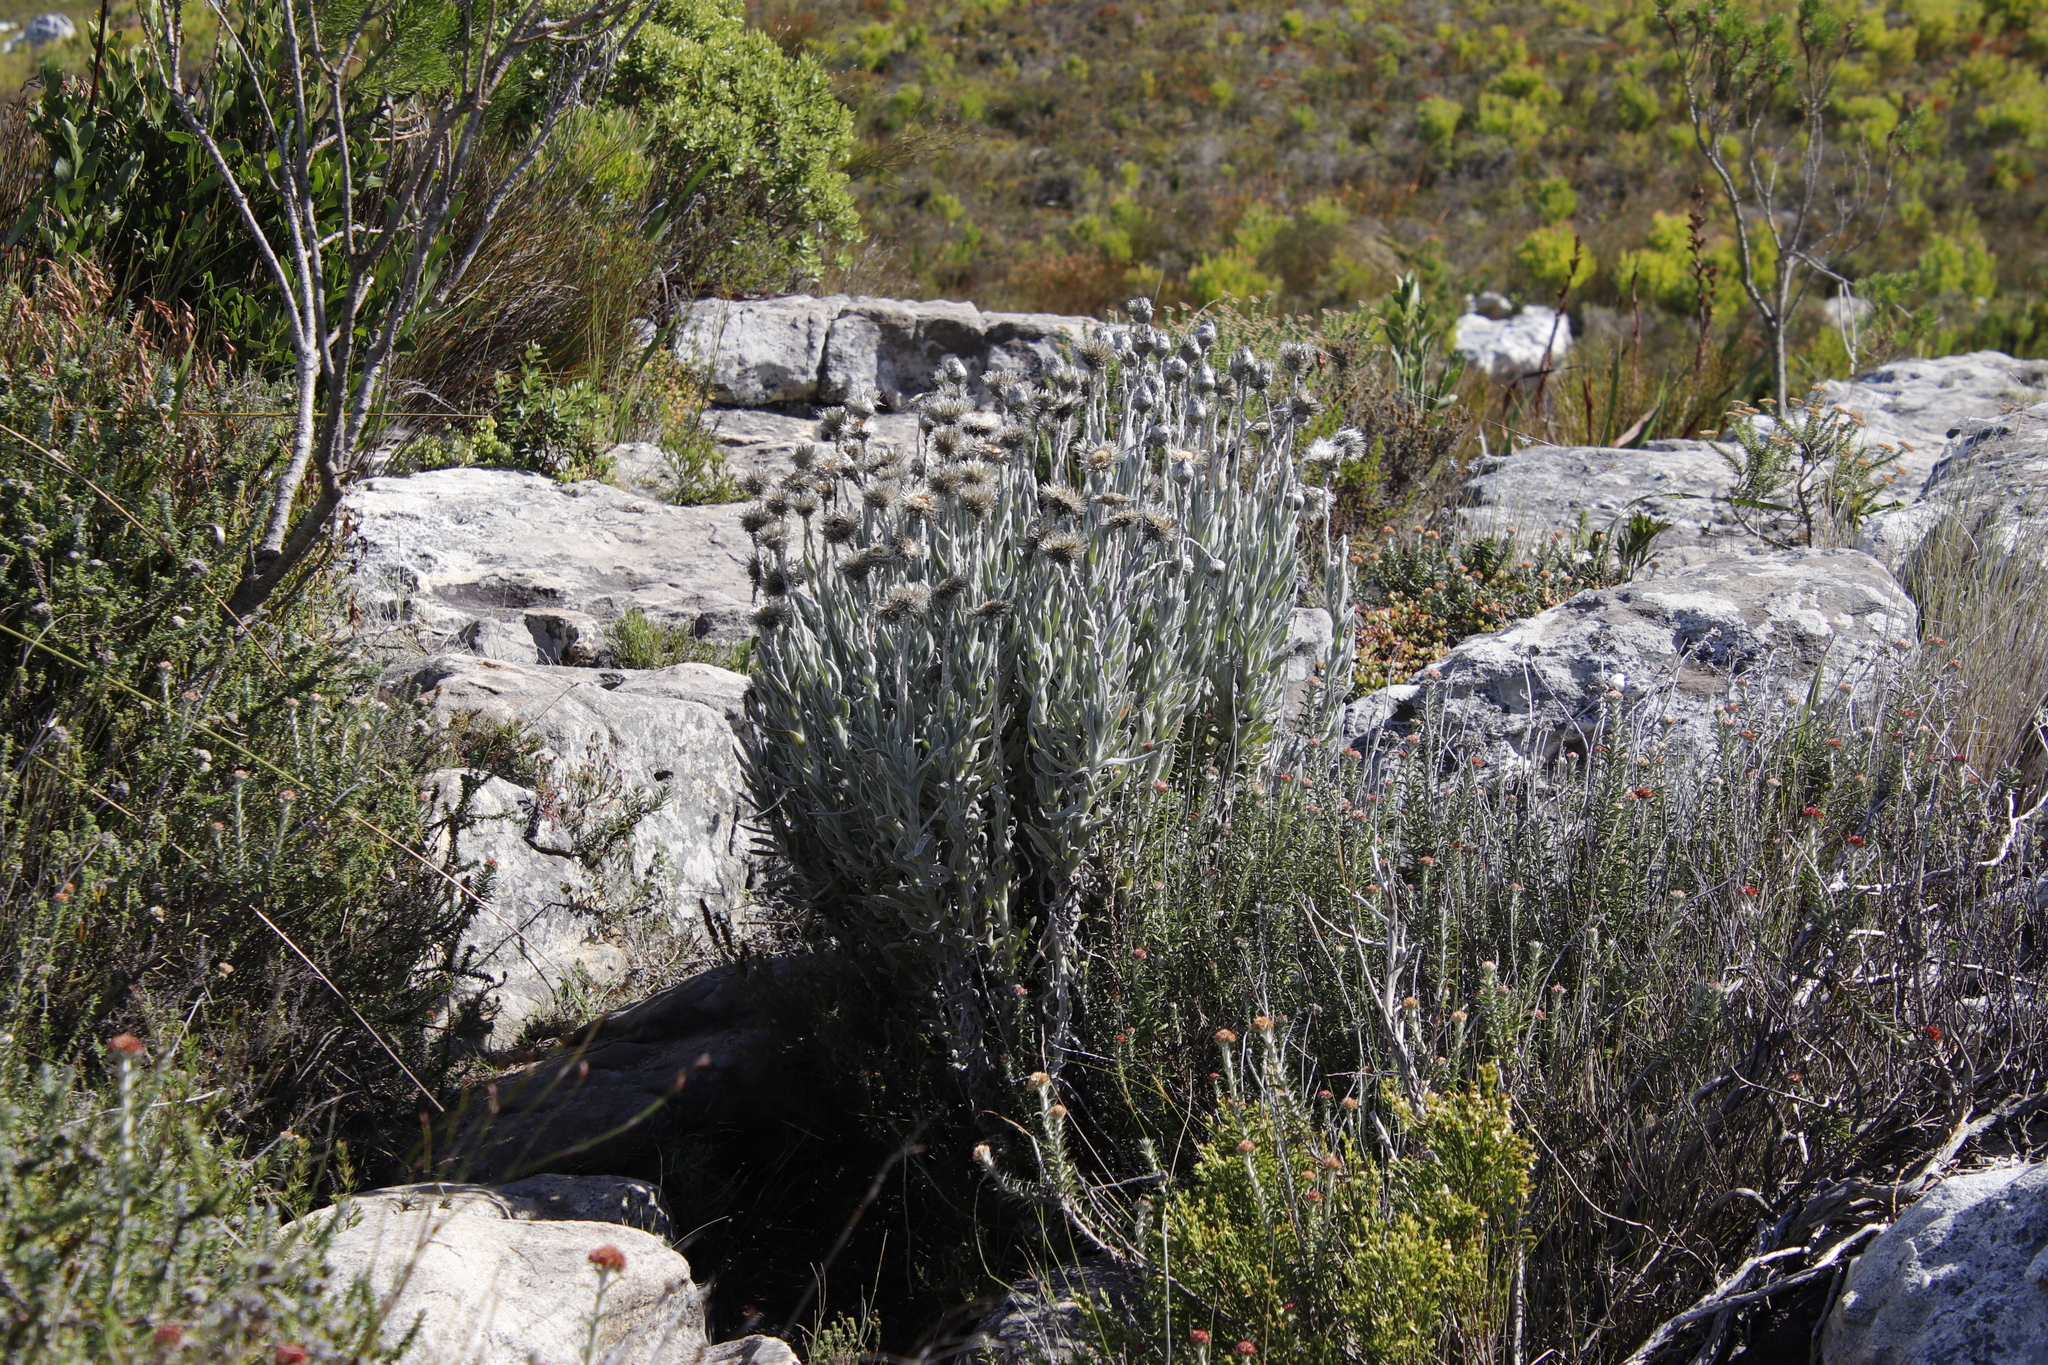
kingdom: Plantae
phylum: Tracheophyta
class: Magnoliopsida
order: Asterales
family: Asteraceae
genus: Syncarpha
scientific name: Syncarpha vestita
